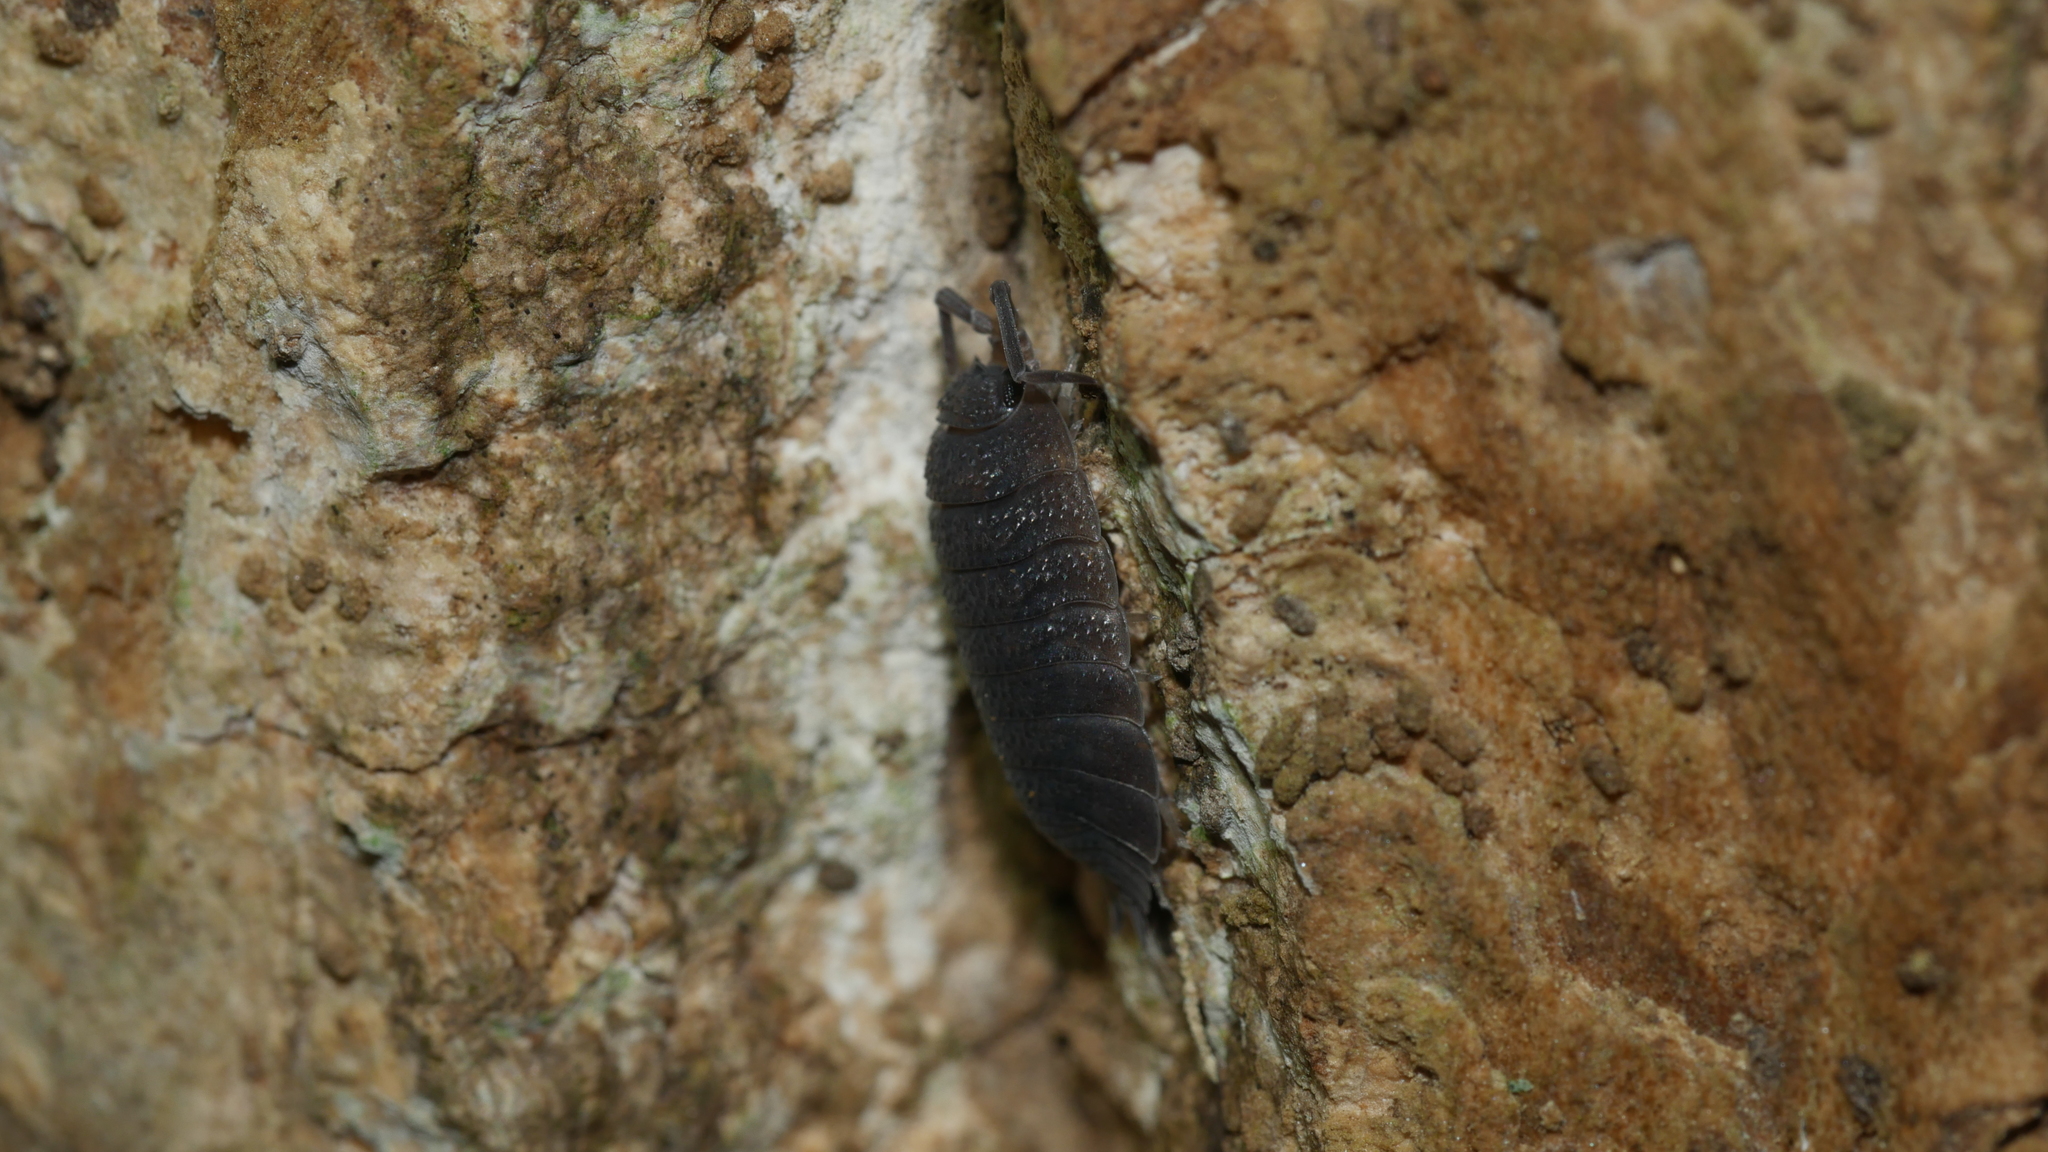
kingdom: Animalia
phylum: Arthropoda
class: Malacostraca
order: Isopoda
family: Porcellionidae
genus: Porcellio
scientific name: Porcellio scaber
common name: Common rough woodlouse
